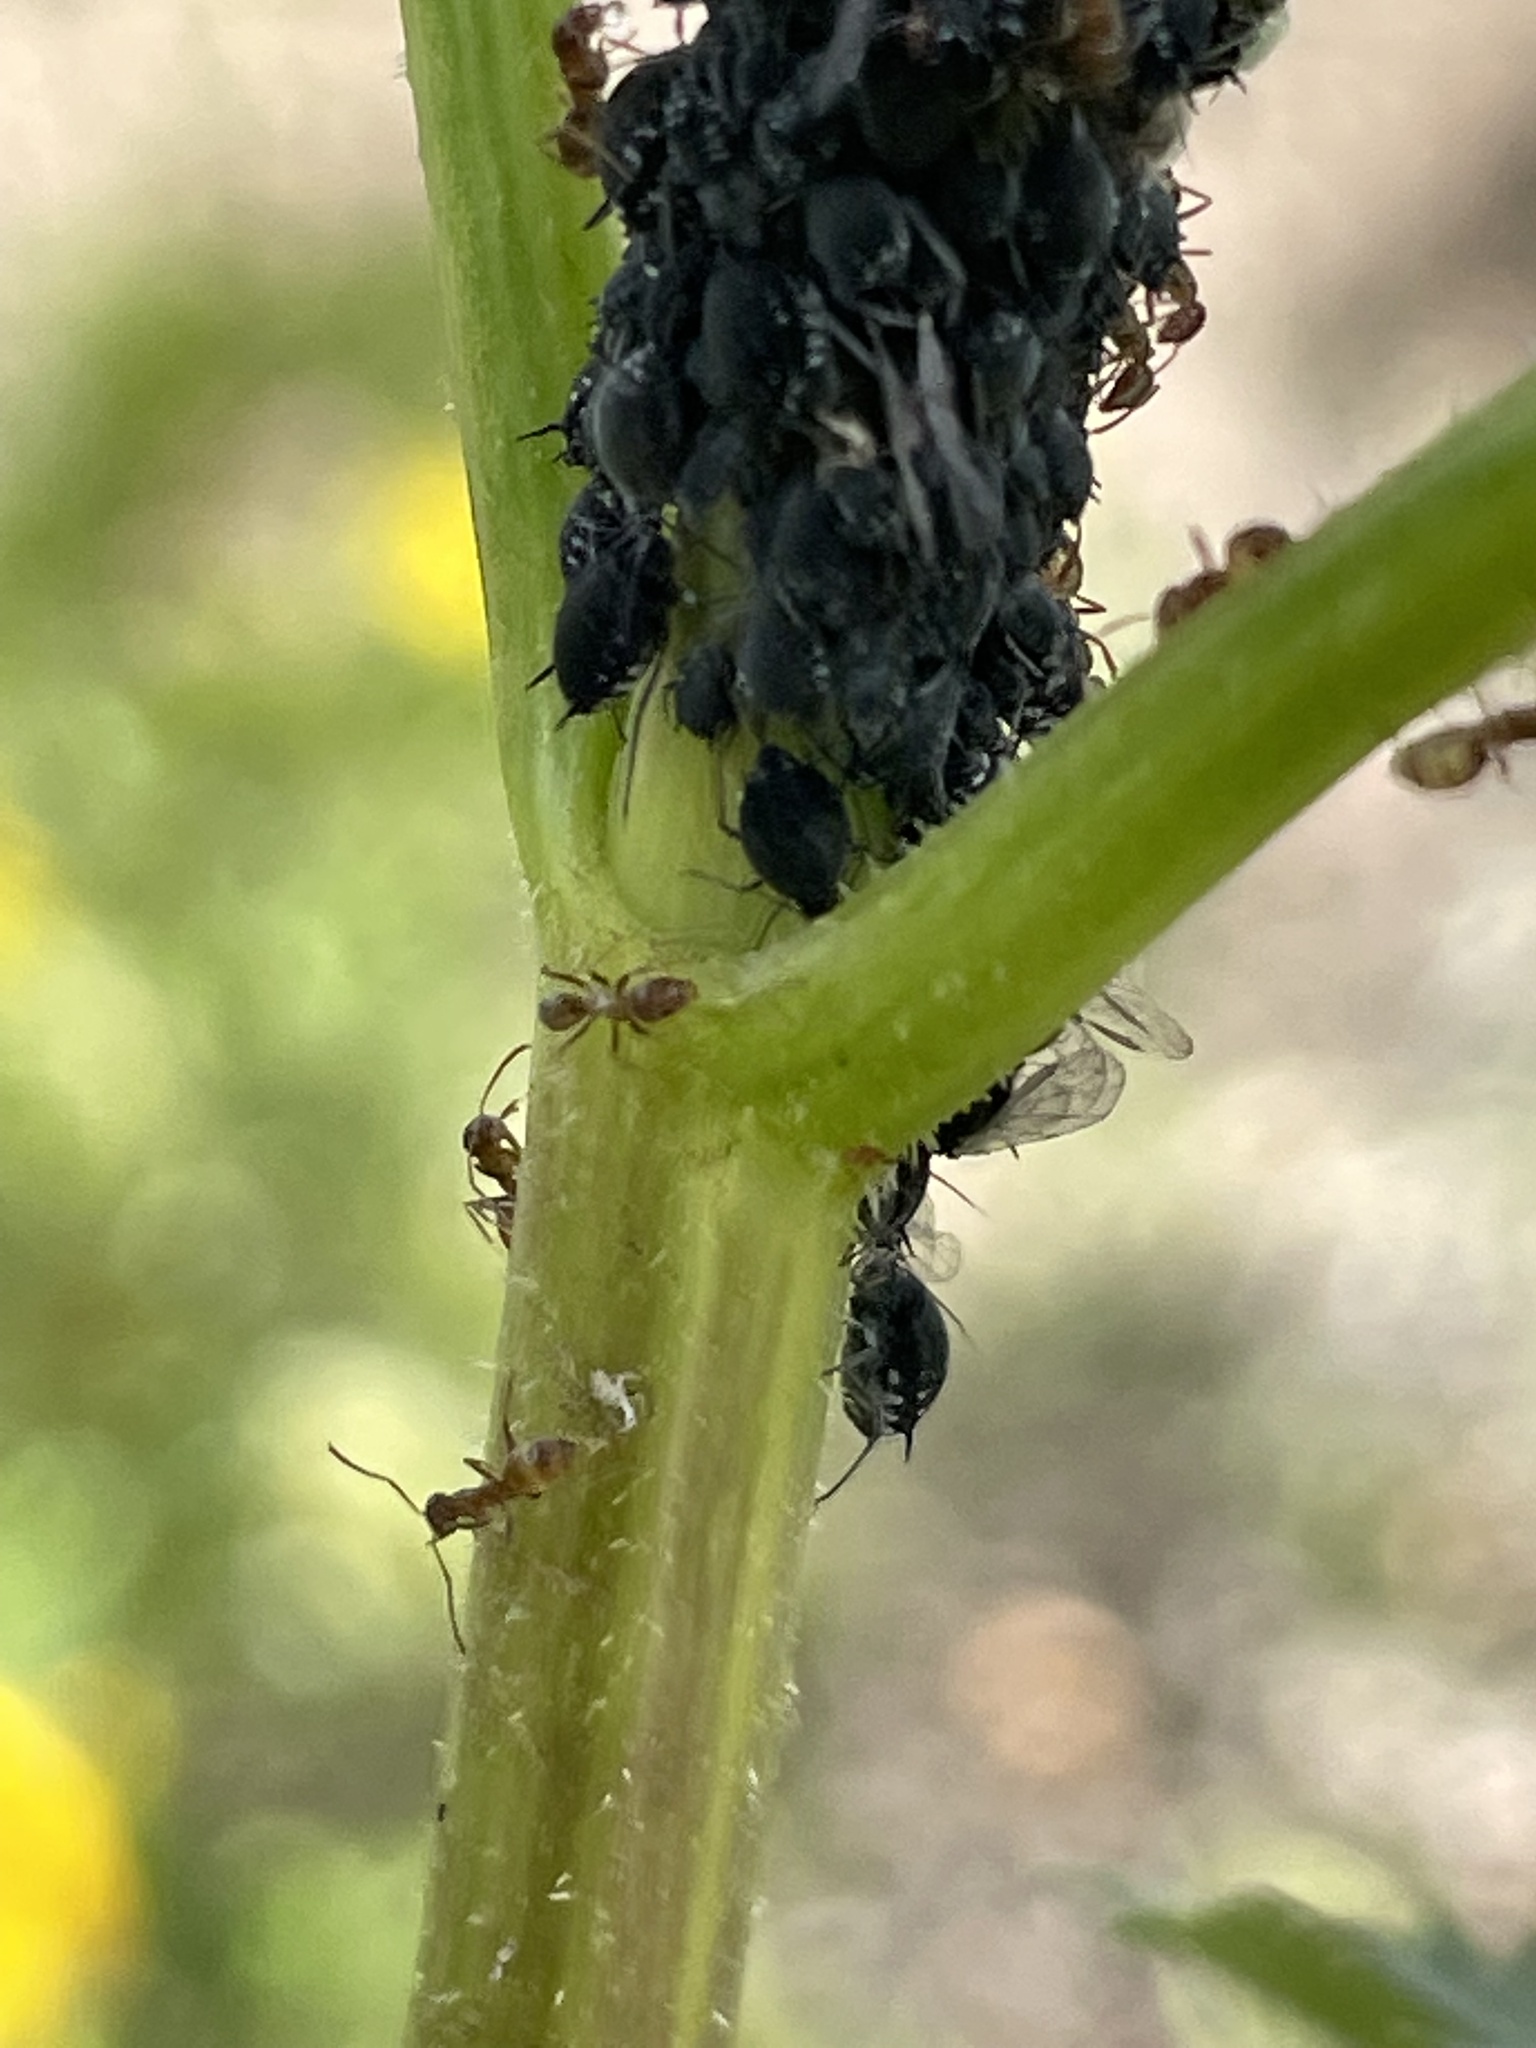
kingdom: Animalia
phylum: Arthropoda
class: Insecta
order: Hemiptera
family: Aphididae
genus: Aphis
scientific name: Aphis sambuci
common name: Elder aphid
